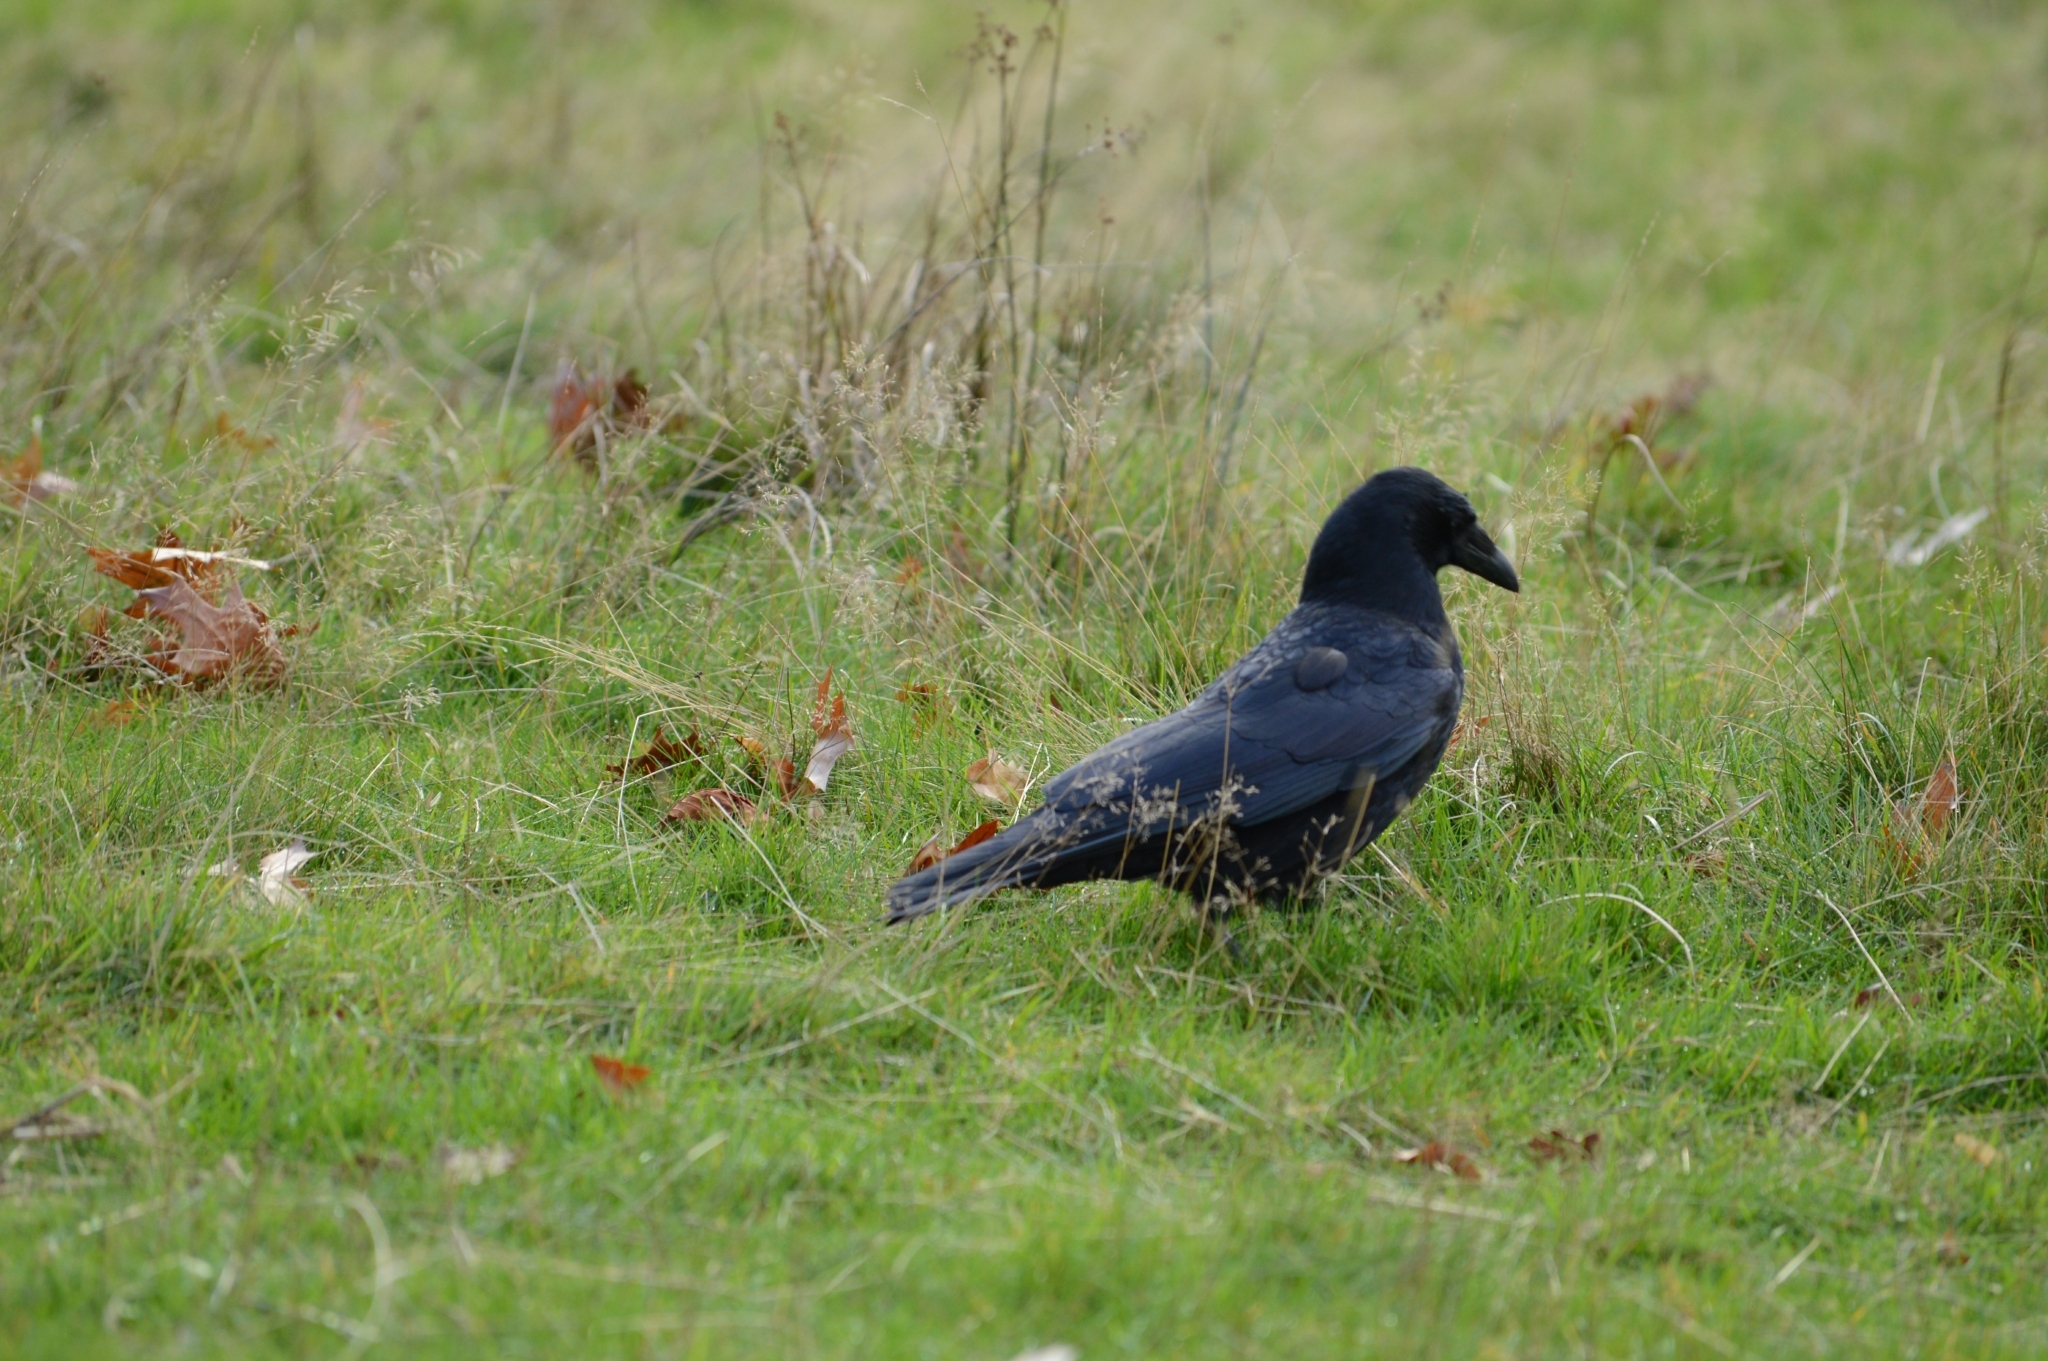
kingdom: Animalia
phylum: Chordata
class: Aves
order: Passeriformes
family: Corvidae
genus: Corvus
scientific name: Corvus corone
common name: Carrion crow
